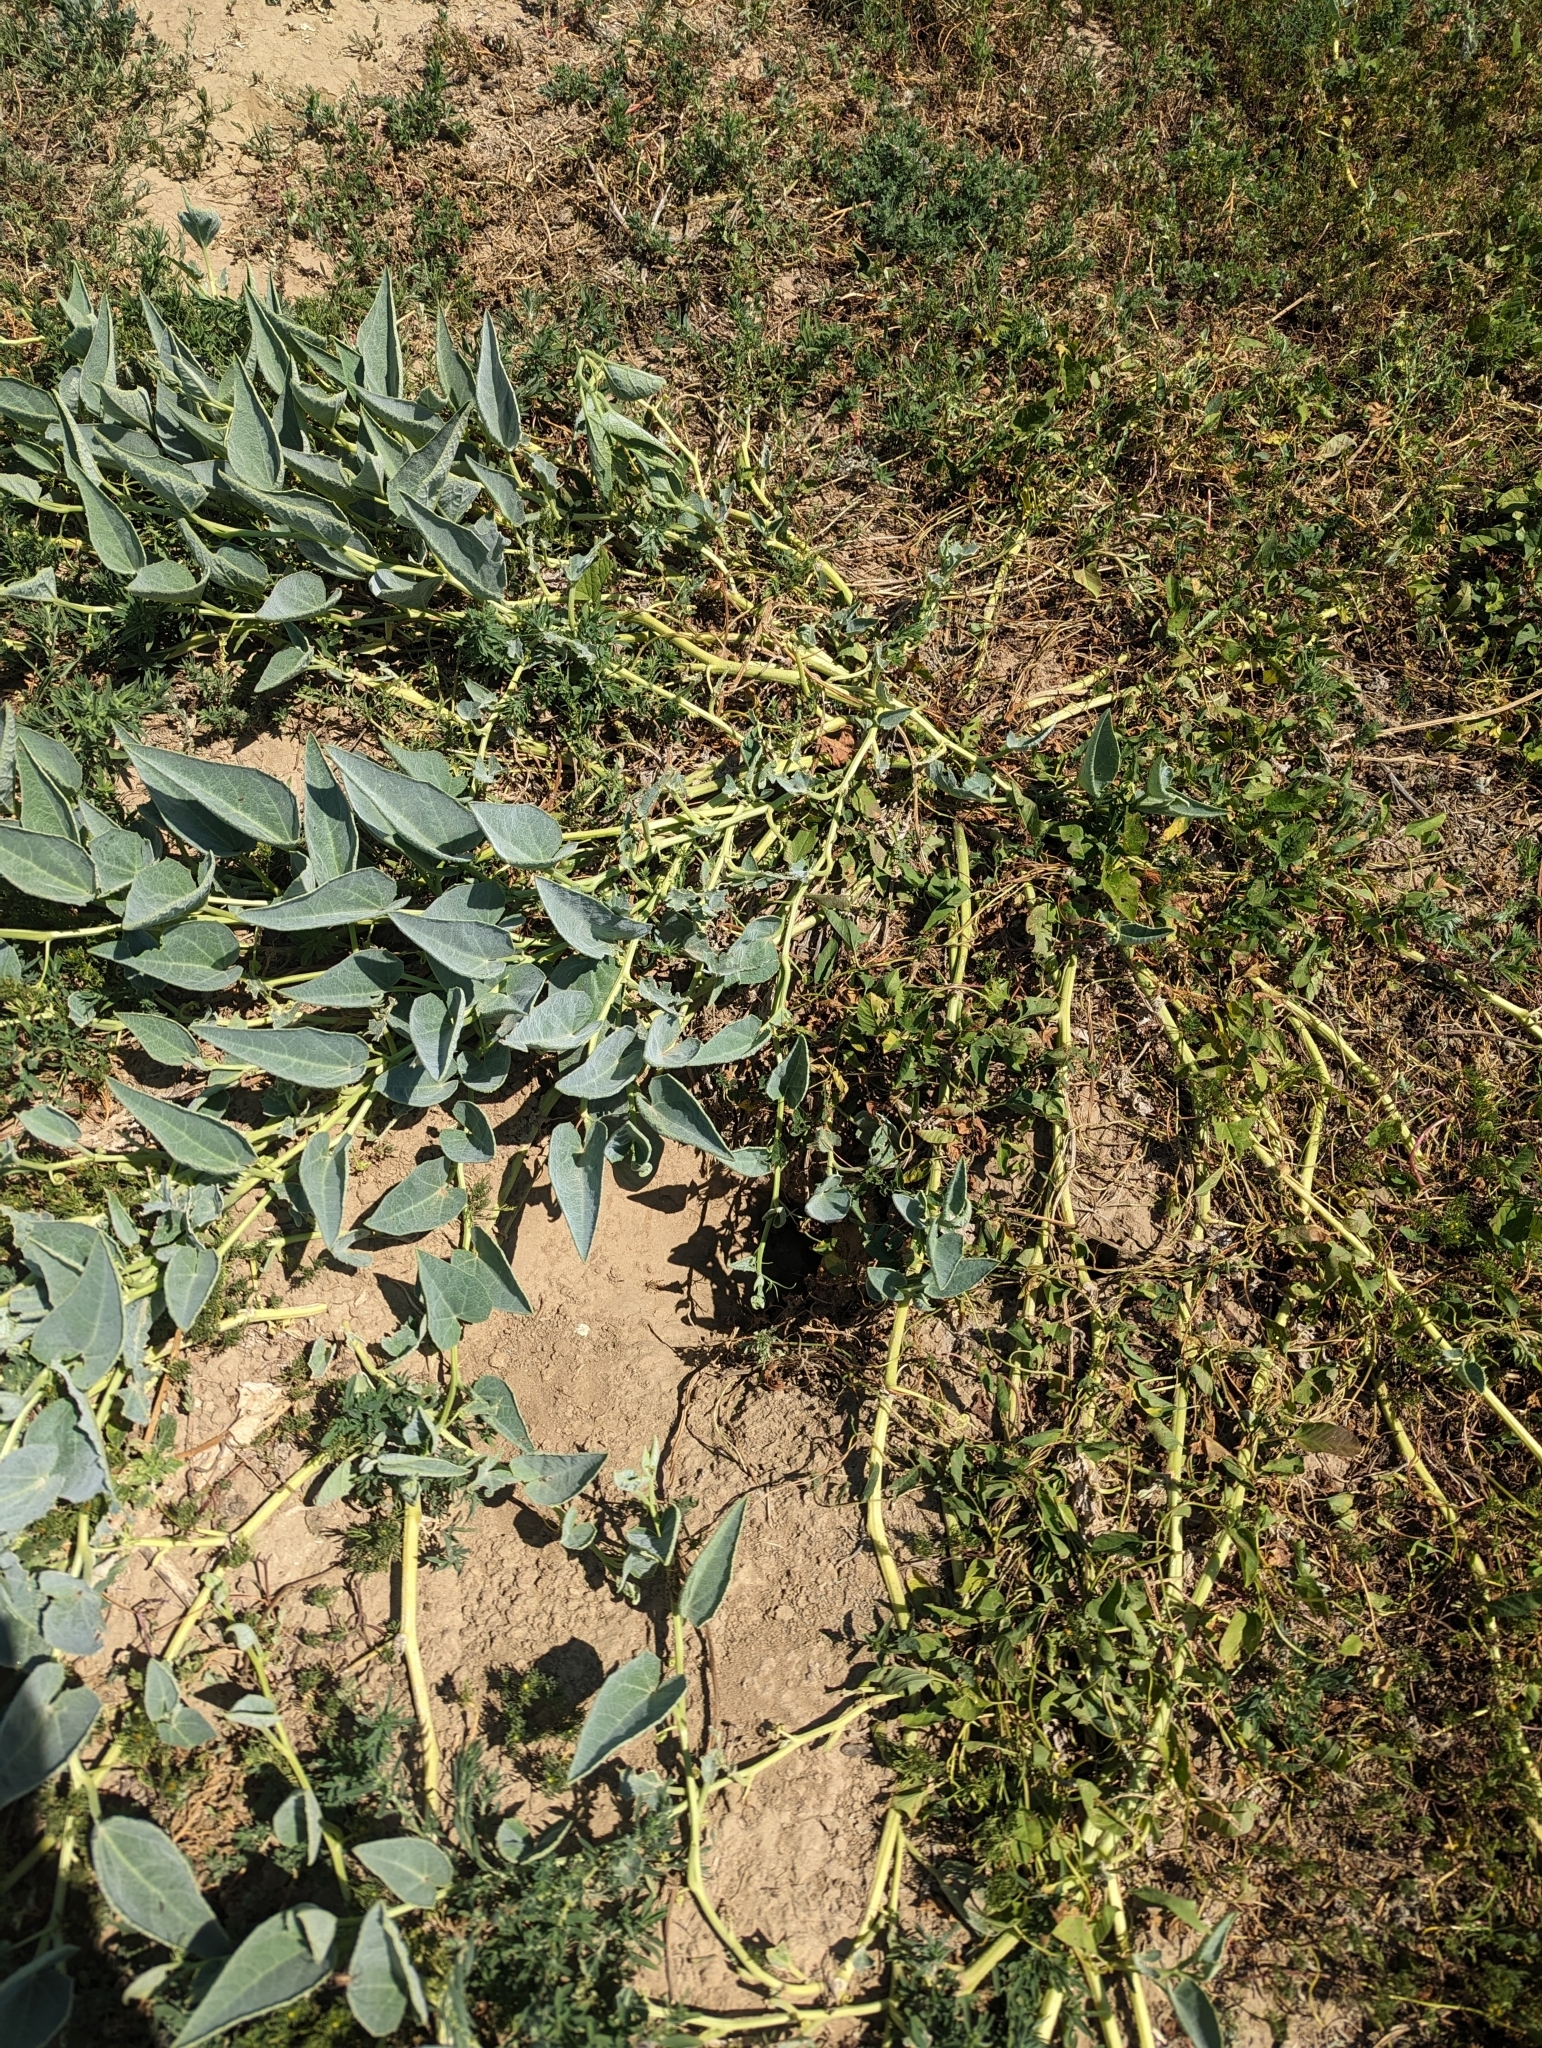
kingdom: Plantae
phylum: Tracheophyta
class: Magnoliopsida
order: Cucurbitales
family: Cucurbitaceae
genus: Cucurbita
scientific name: Cucurbita foetidissima
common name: Buffalo gourd
